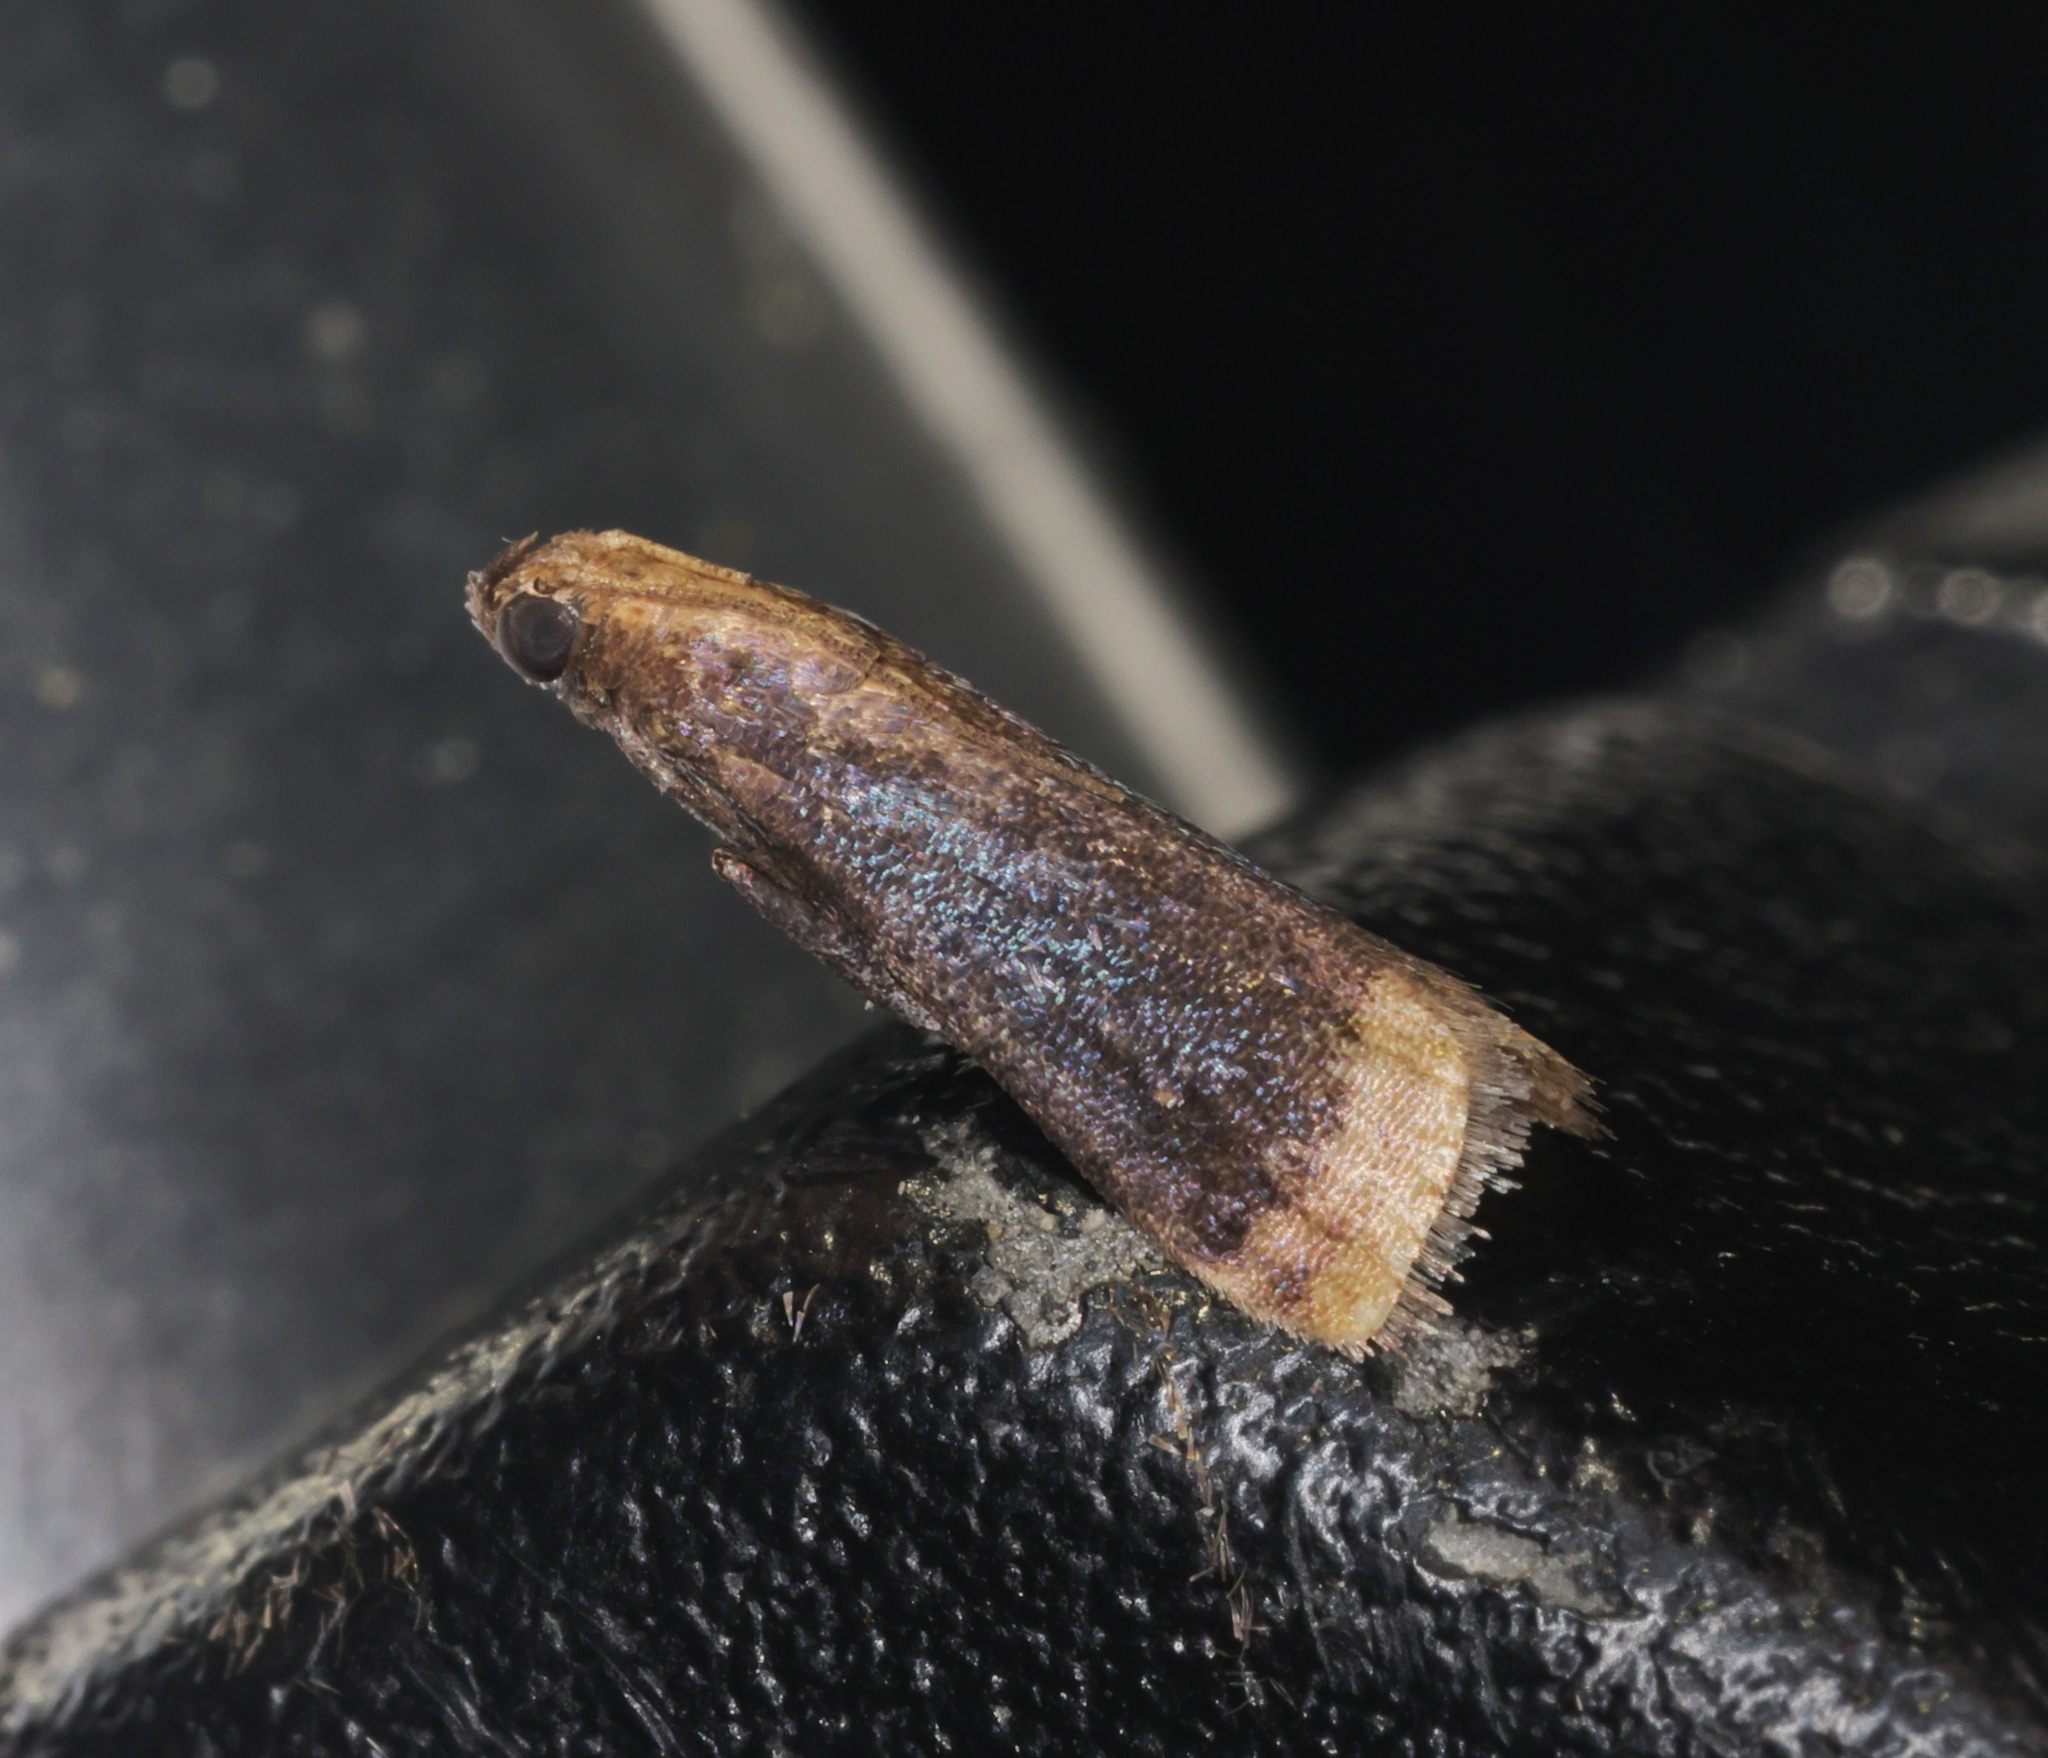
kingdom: Animalia
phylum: Arthropoda
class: Insecta
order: Lepidoptera
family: Pyralidae
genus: Metallostichodes
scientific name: Metallostichodes hemicautella
